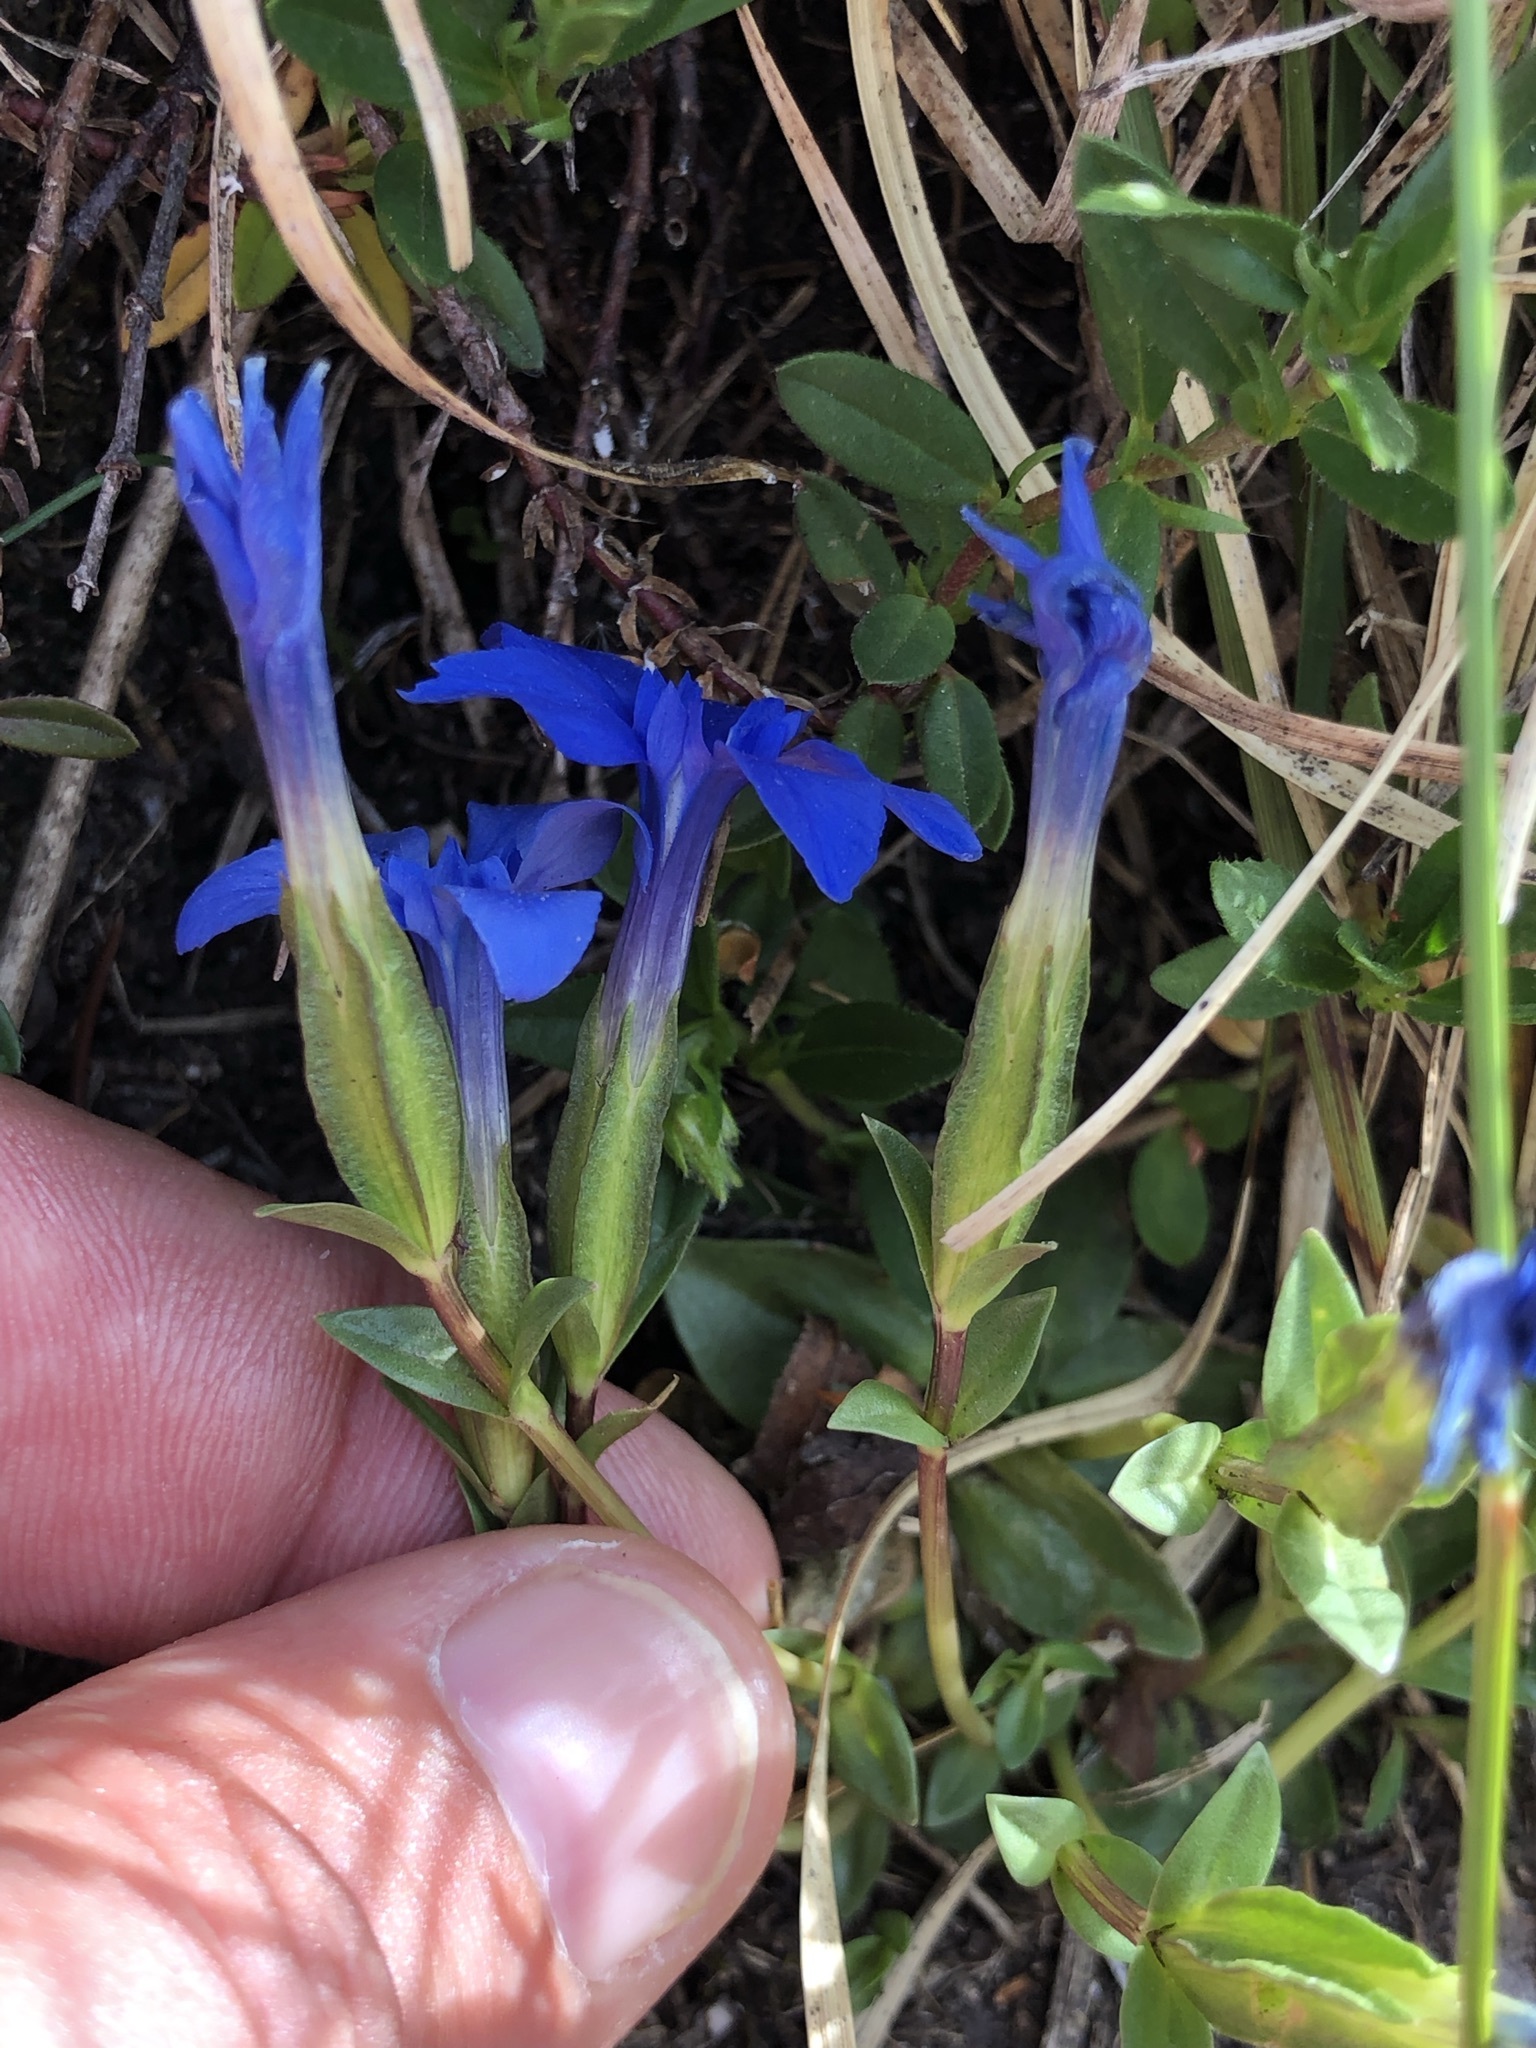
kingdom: Plantae
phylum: Tracheophyta
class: Magnoliopsida
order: Gentianales
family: Gentianaceae
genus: Gentiana
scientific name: Gentiana verna
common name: Spring gentian
